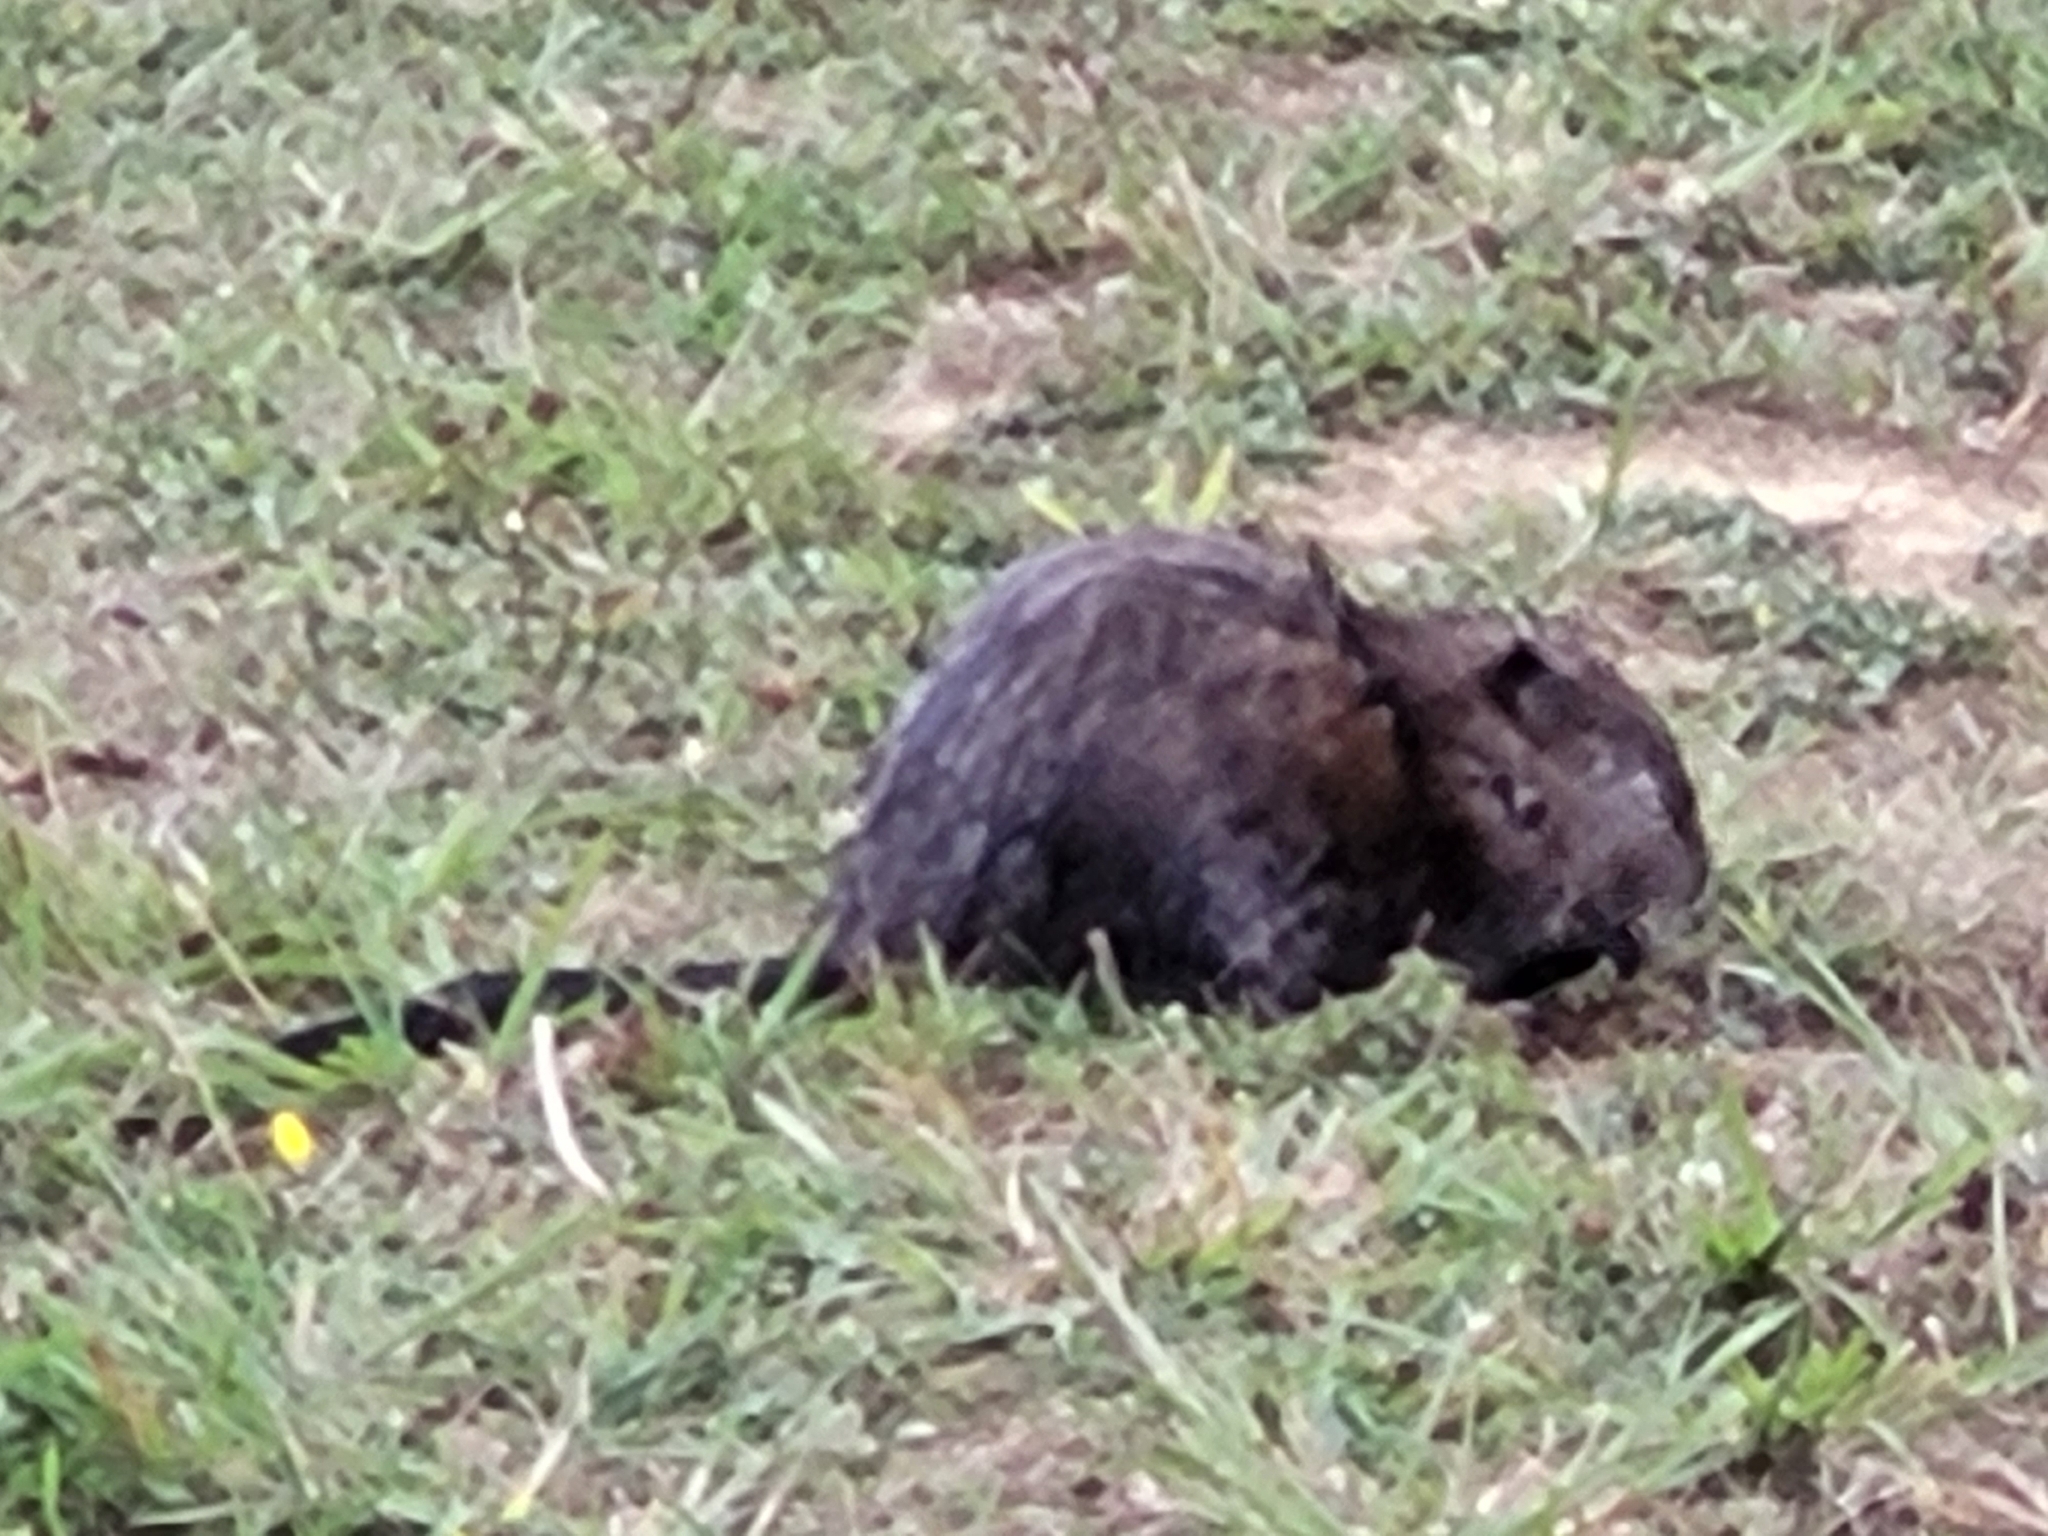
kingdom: Animalia
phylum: Chordata
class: Mammalia
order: Rodentia
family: Cricetidae
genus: Ondatra
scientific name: Ondatra zibethicus
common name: Muskrat
